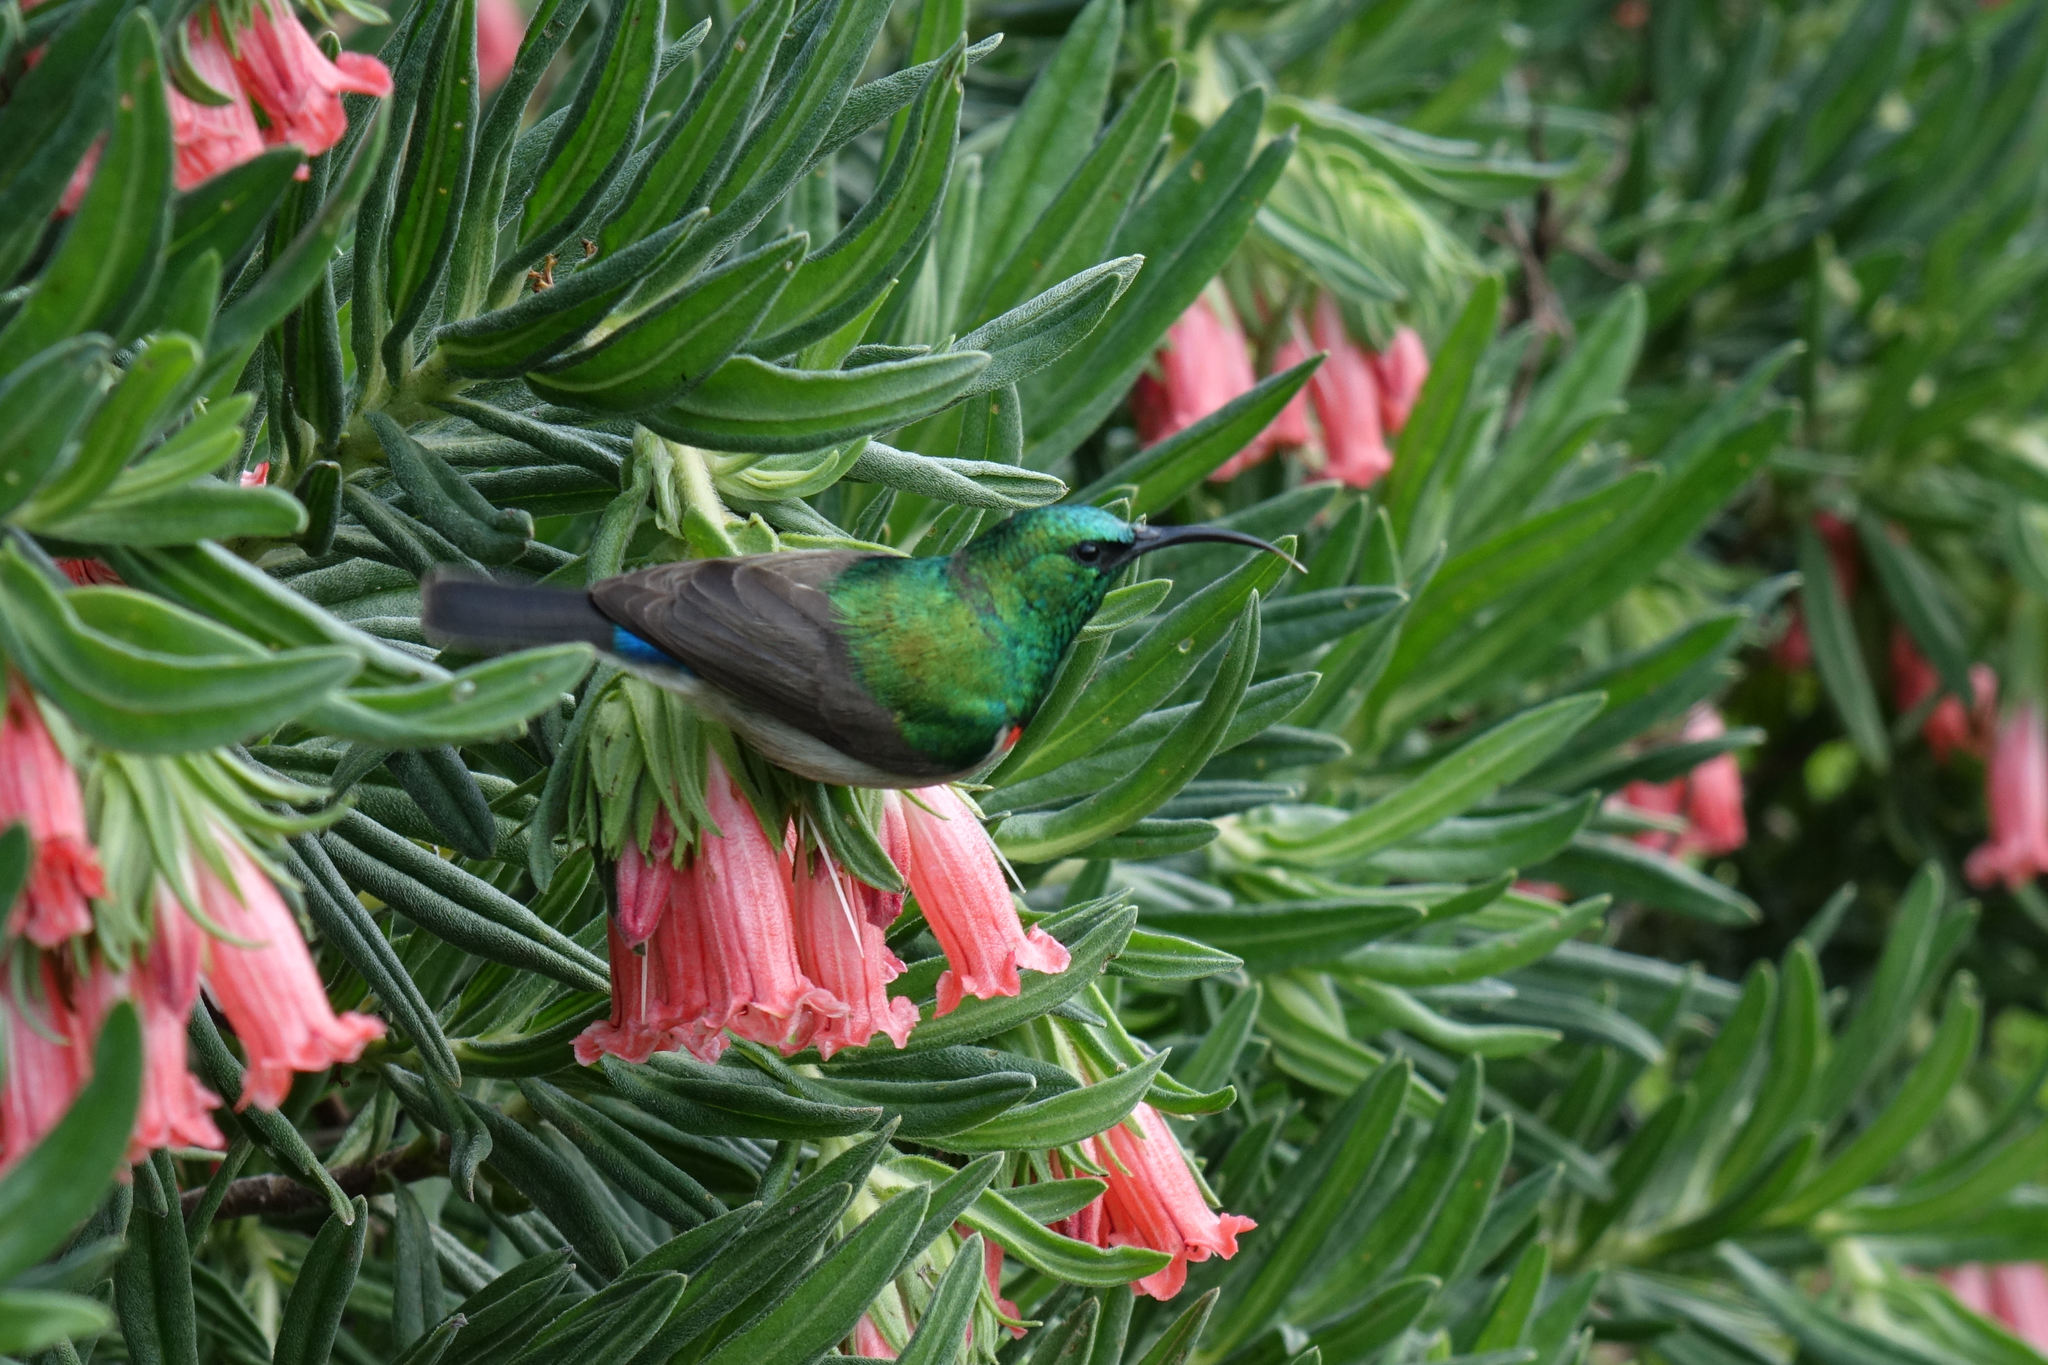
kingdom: Animalia
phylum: Chordata
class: Aves
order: Passeriformes
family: Nectariniidae
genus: Cinnyris
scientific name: Cinnyris chalybeus
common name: Southern double-collared sunbird
